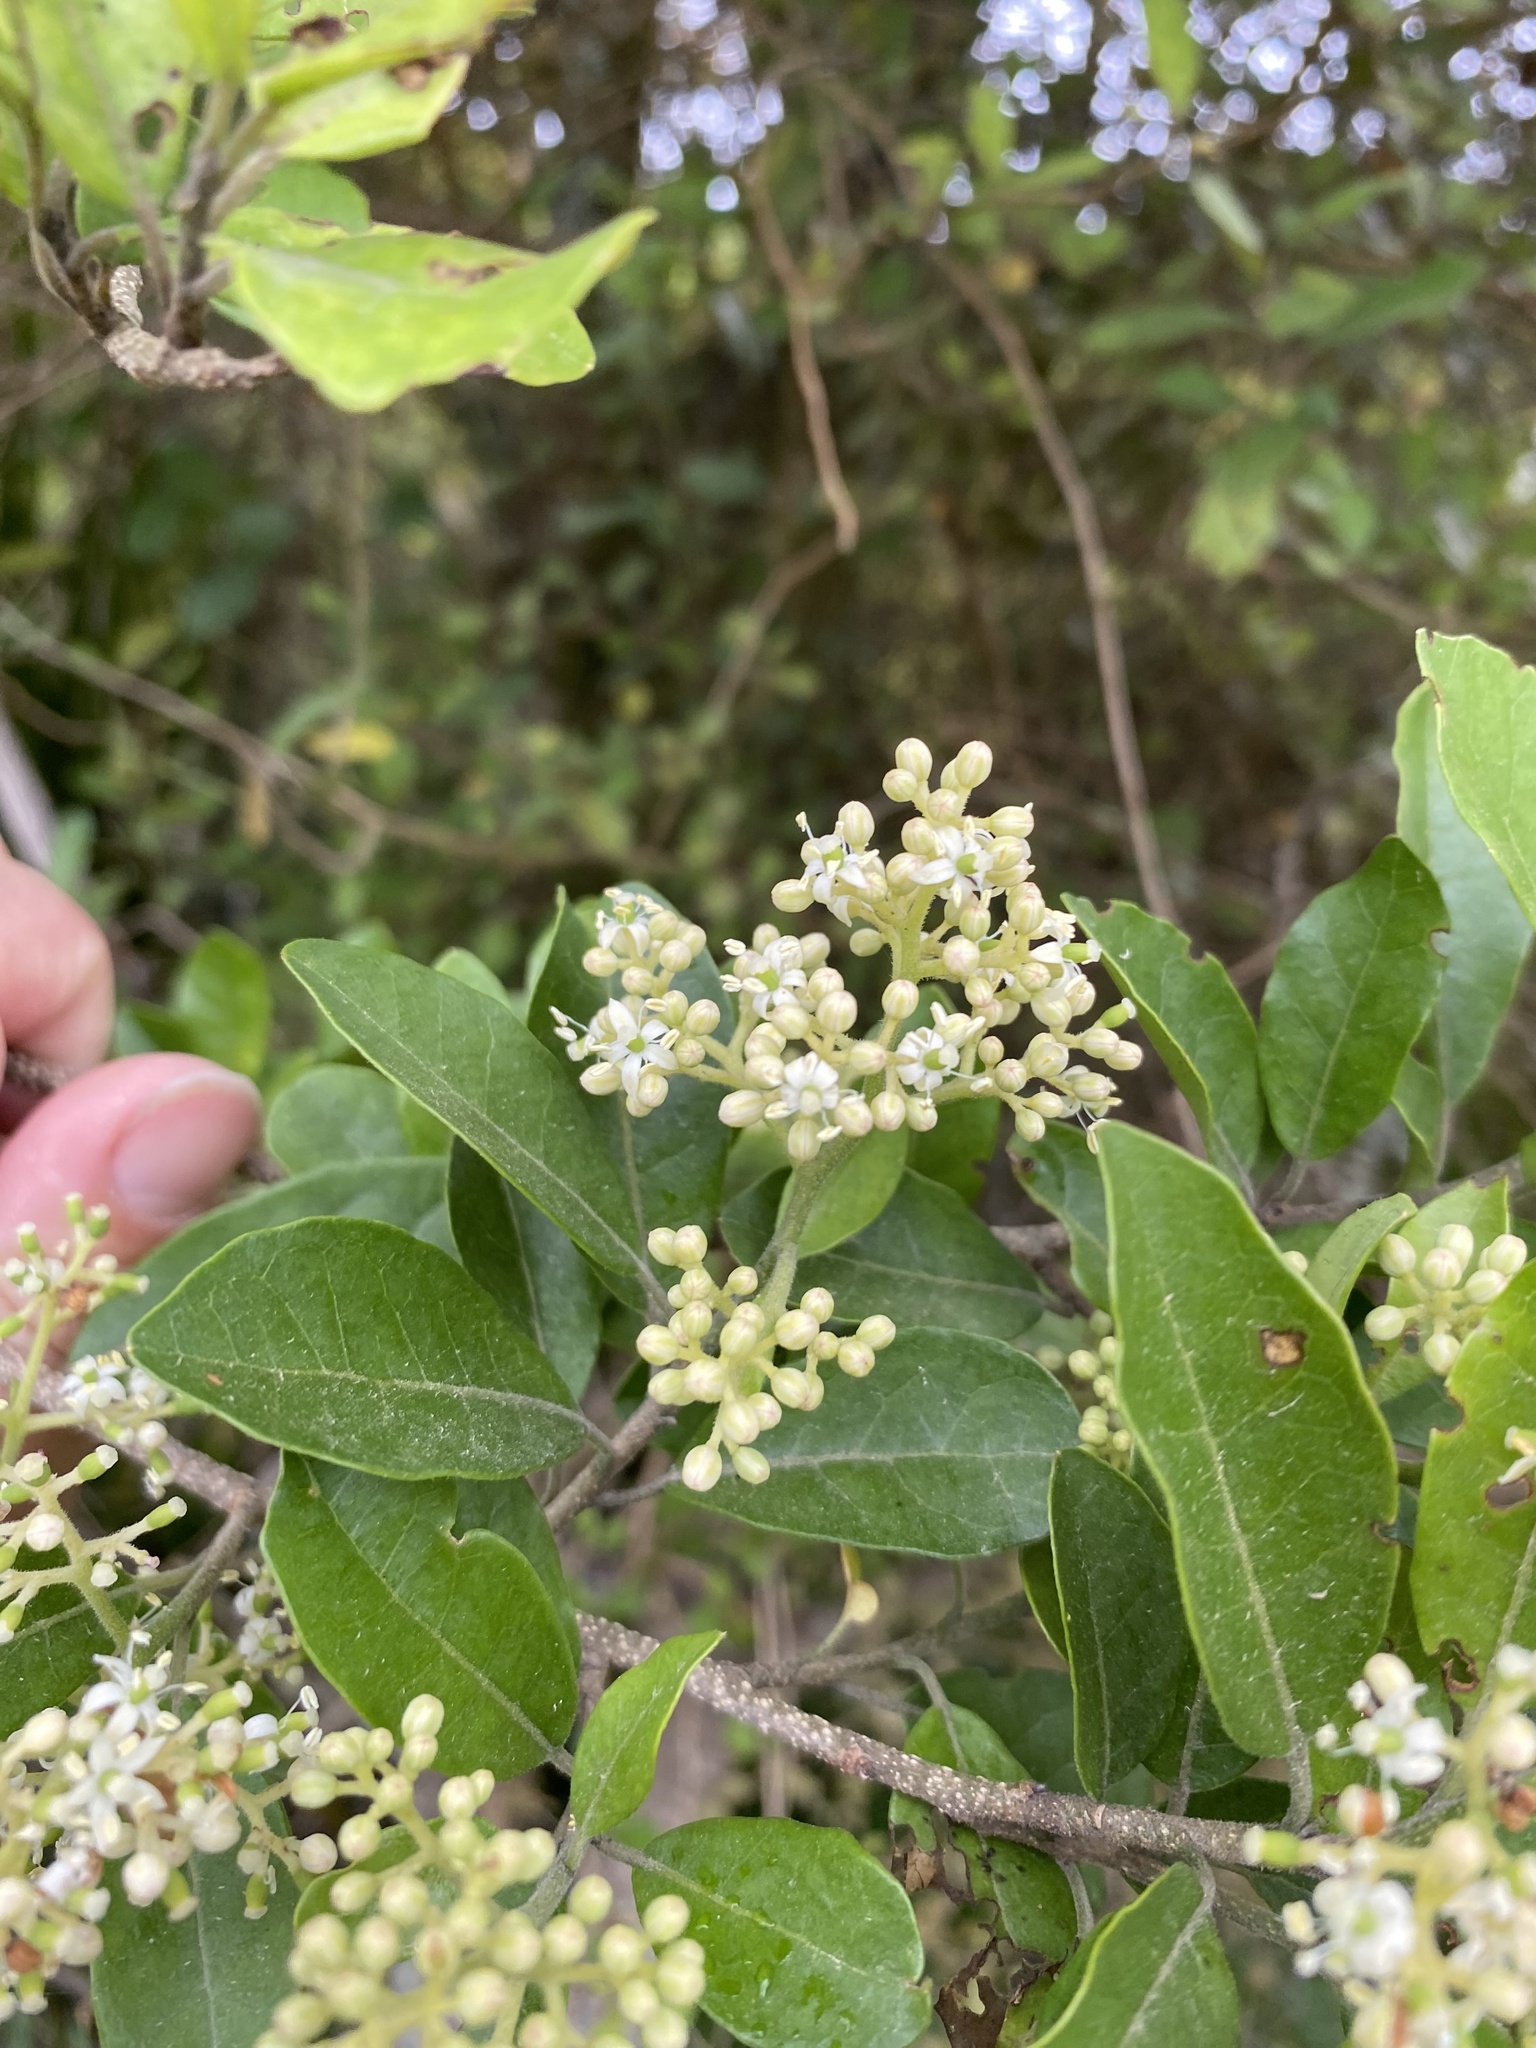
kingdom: Plantae
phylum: Tracheophyta
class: Magnoliopsida
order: Apiales
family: Pennantiaceae
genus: Pennantia
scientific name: Pennantia corymbosa
